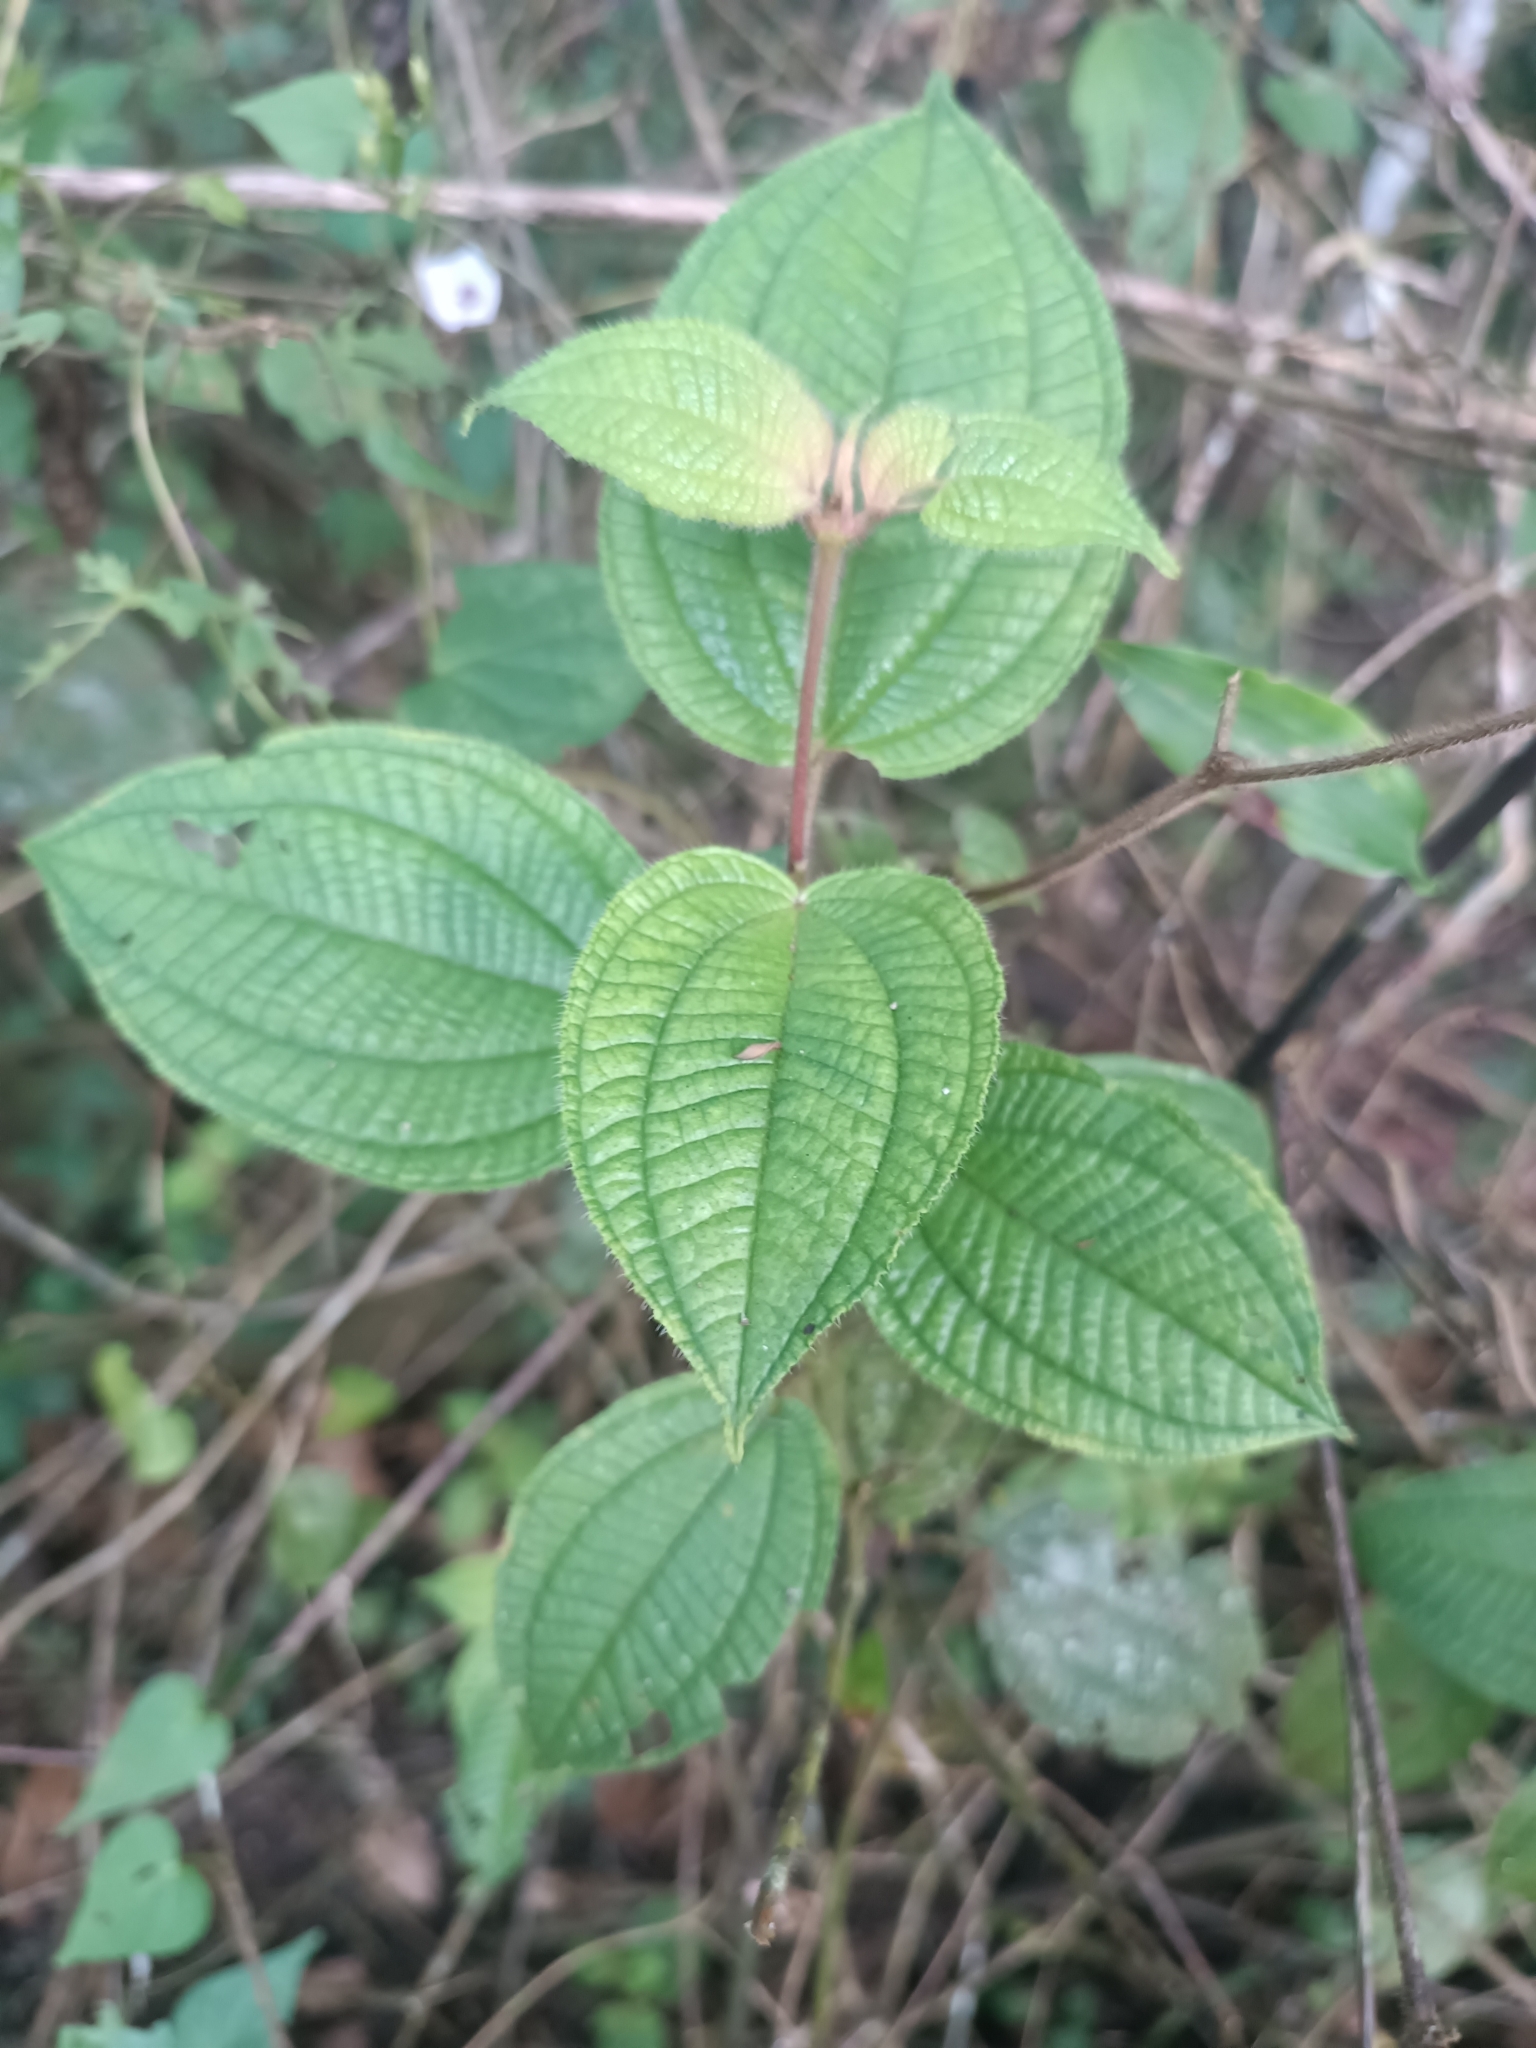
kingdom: Plantae
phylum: Tracheophyta
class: Magnoliopsida
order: Myrtales
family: Melastomataceae
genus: Miconia
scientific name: Miconia crenata
